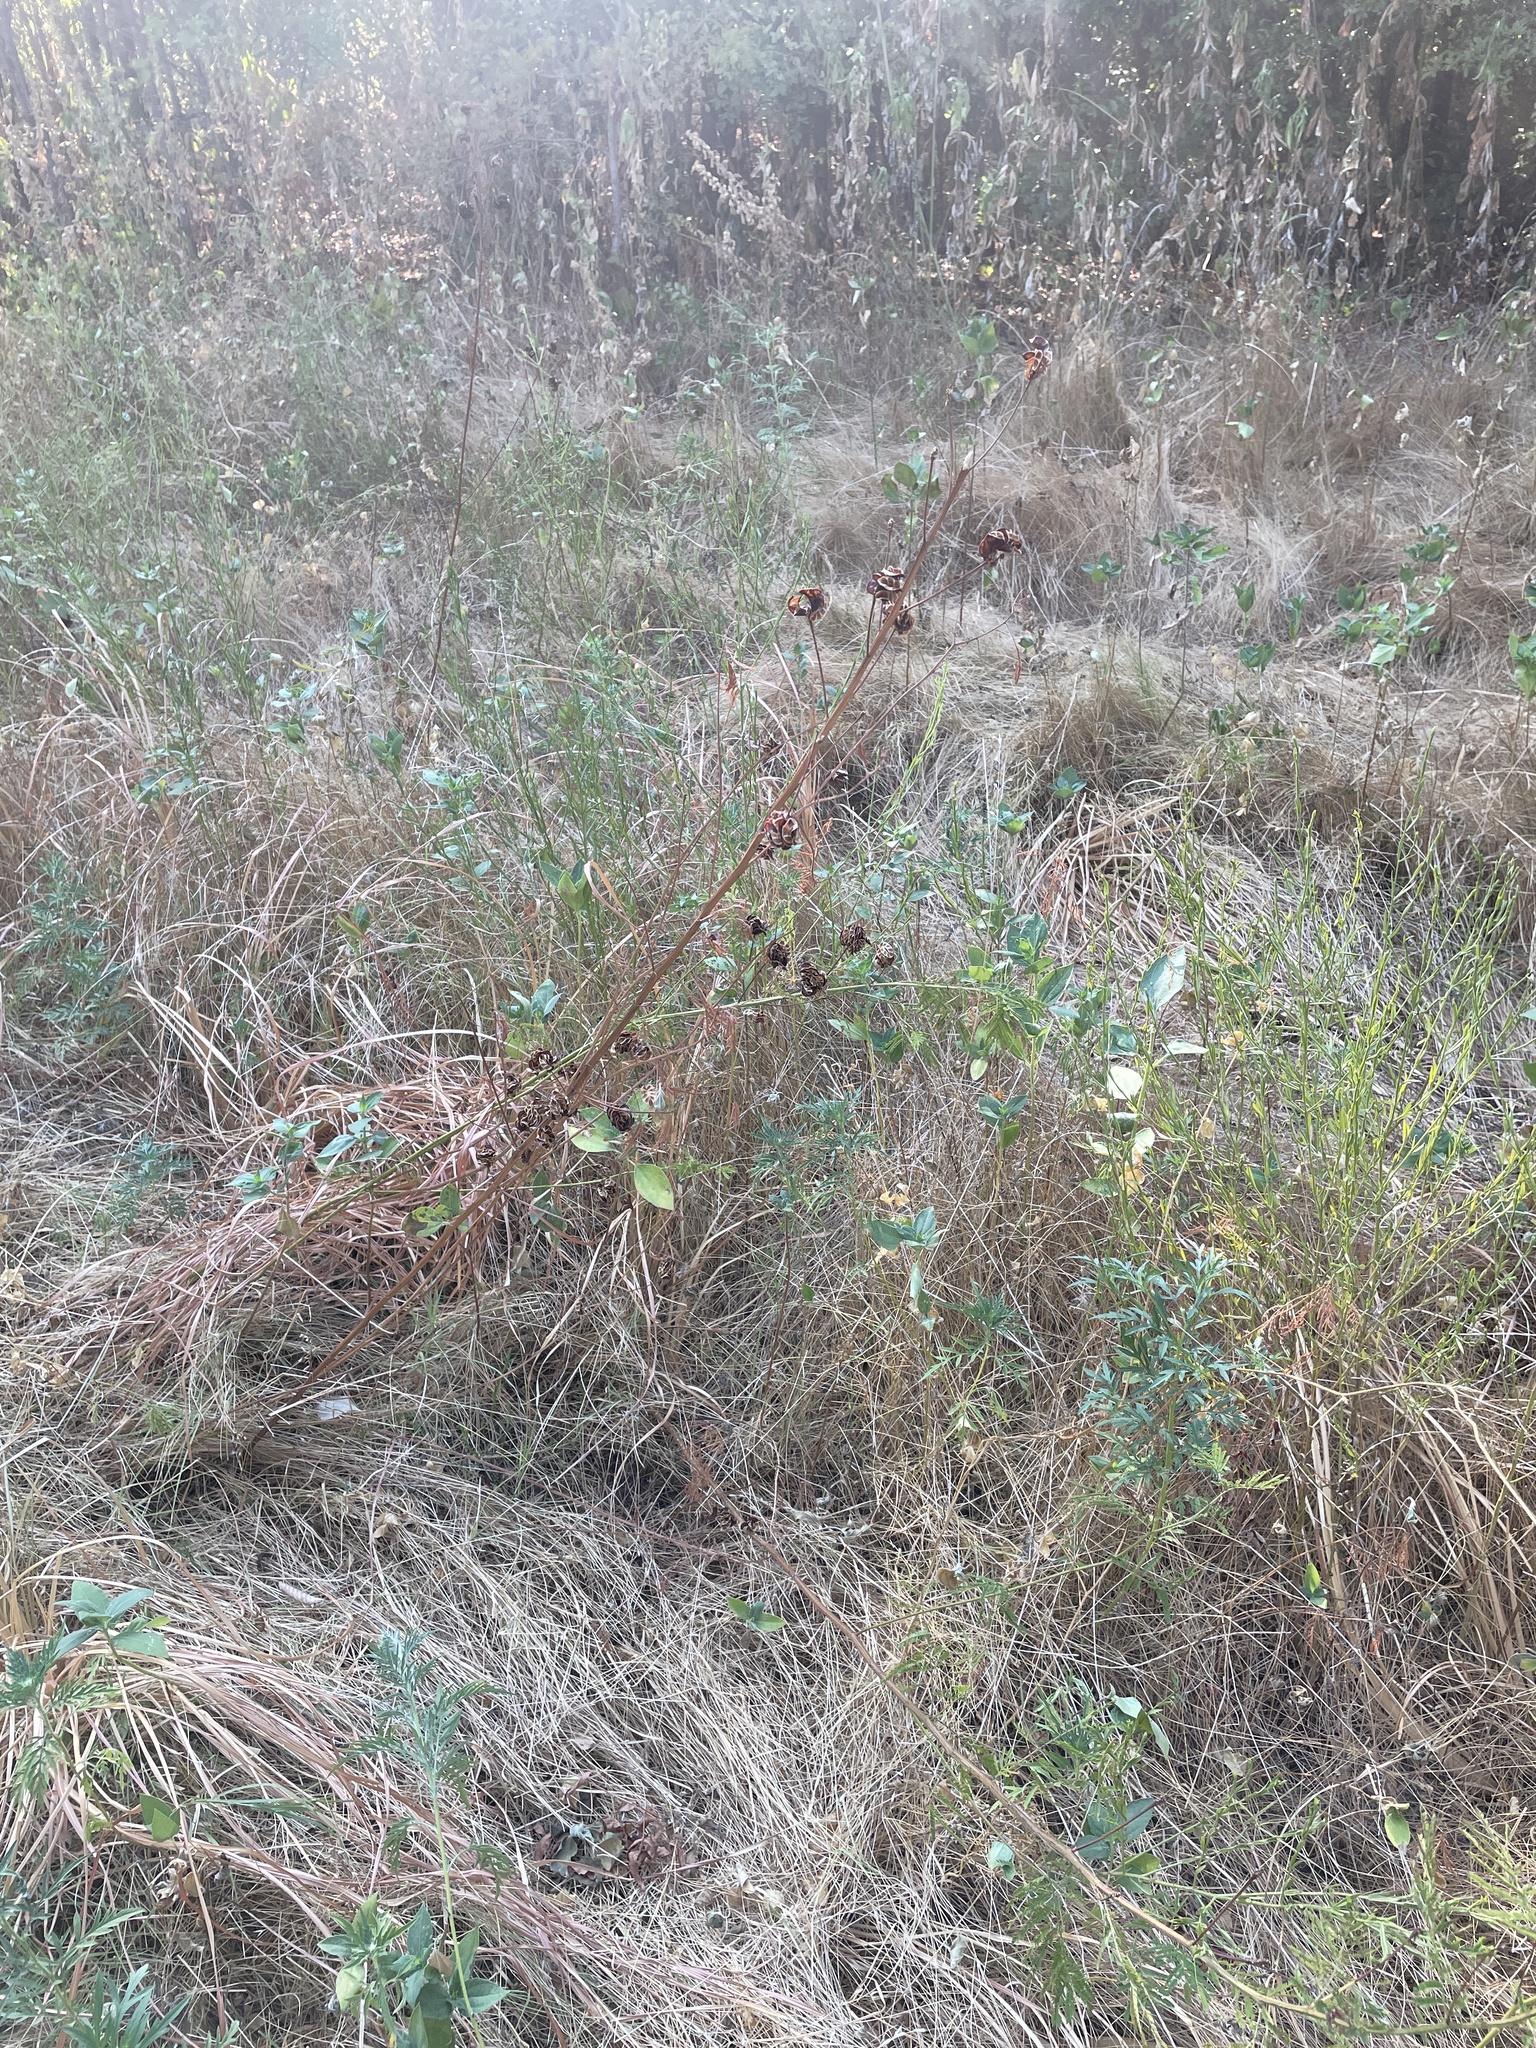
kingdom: Plantae
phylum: Tracheophyta
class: Magnoliopsida
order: Fabales
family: Fabaceae
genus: Desmanthus
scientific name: Desmanthus illinoensis
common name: Illinois bundle-flower
